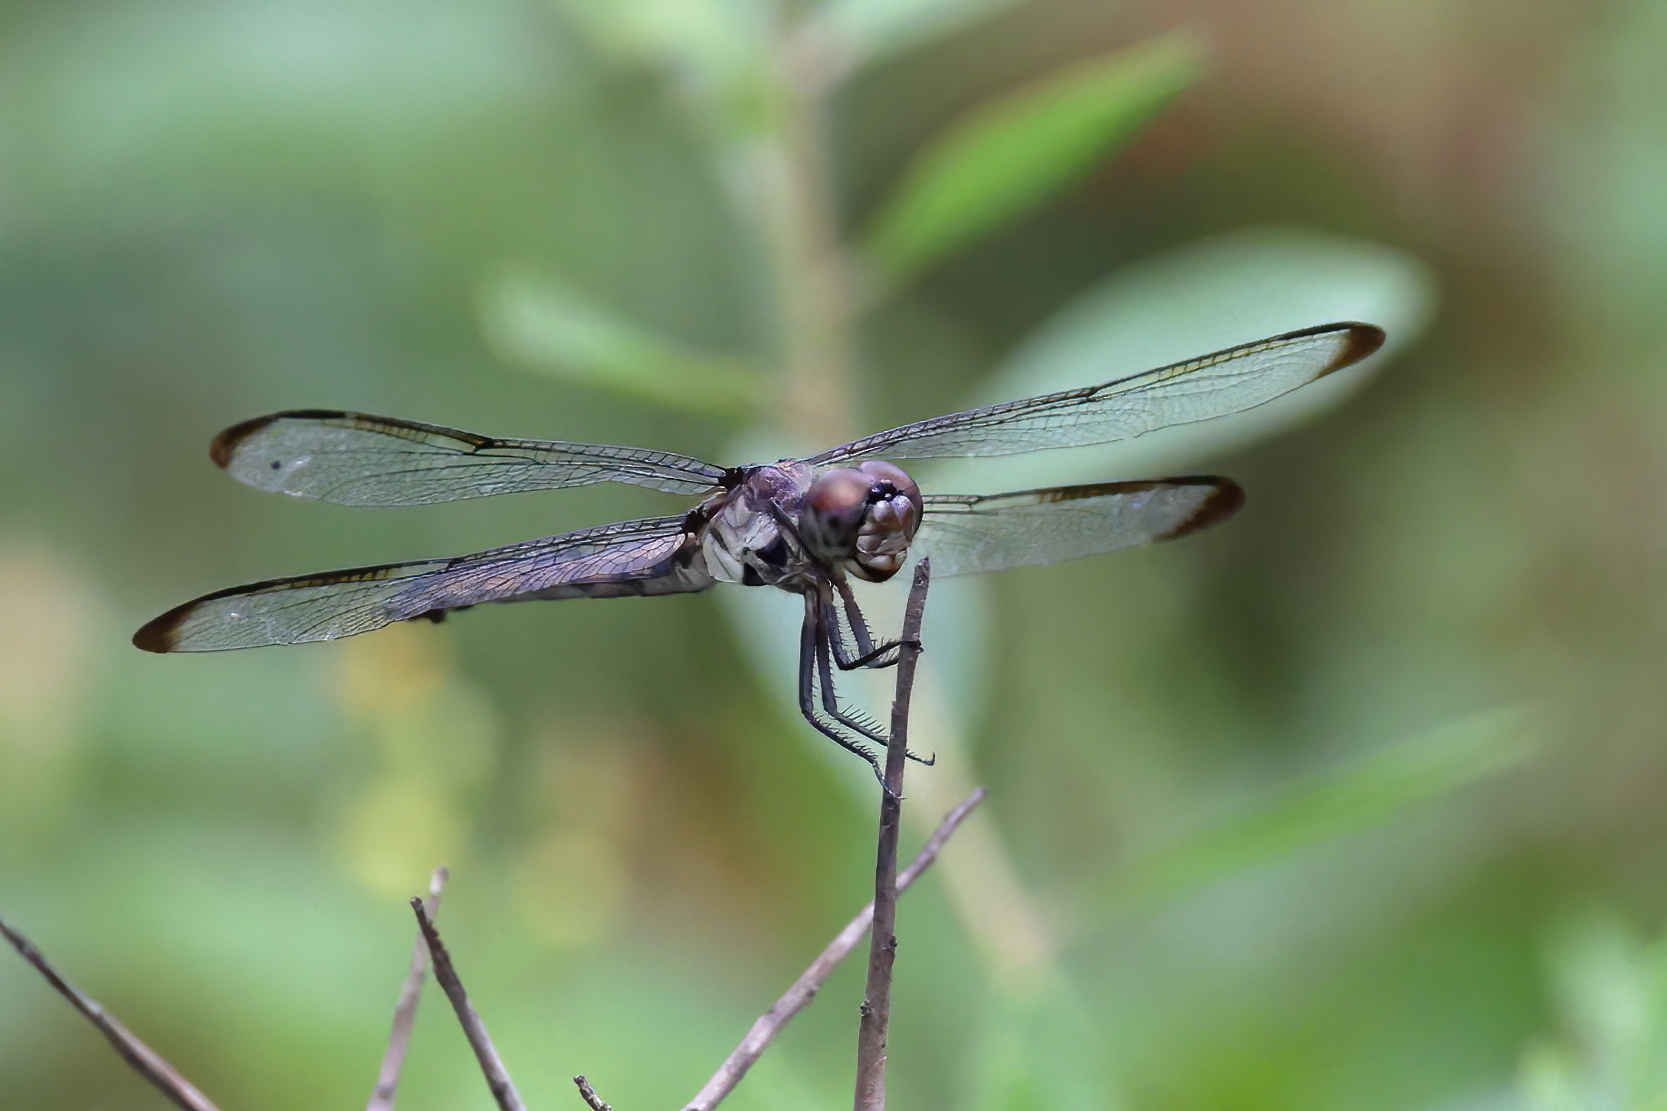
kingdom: Animalia
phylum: Arthropoda
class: Insecta
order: Odonata
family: Libellulidae
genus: Libellula
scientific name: Libellula incesta
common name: Slaty skimmer
